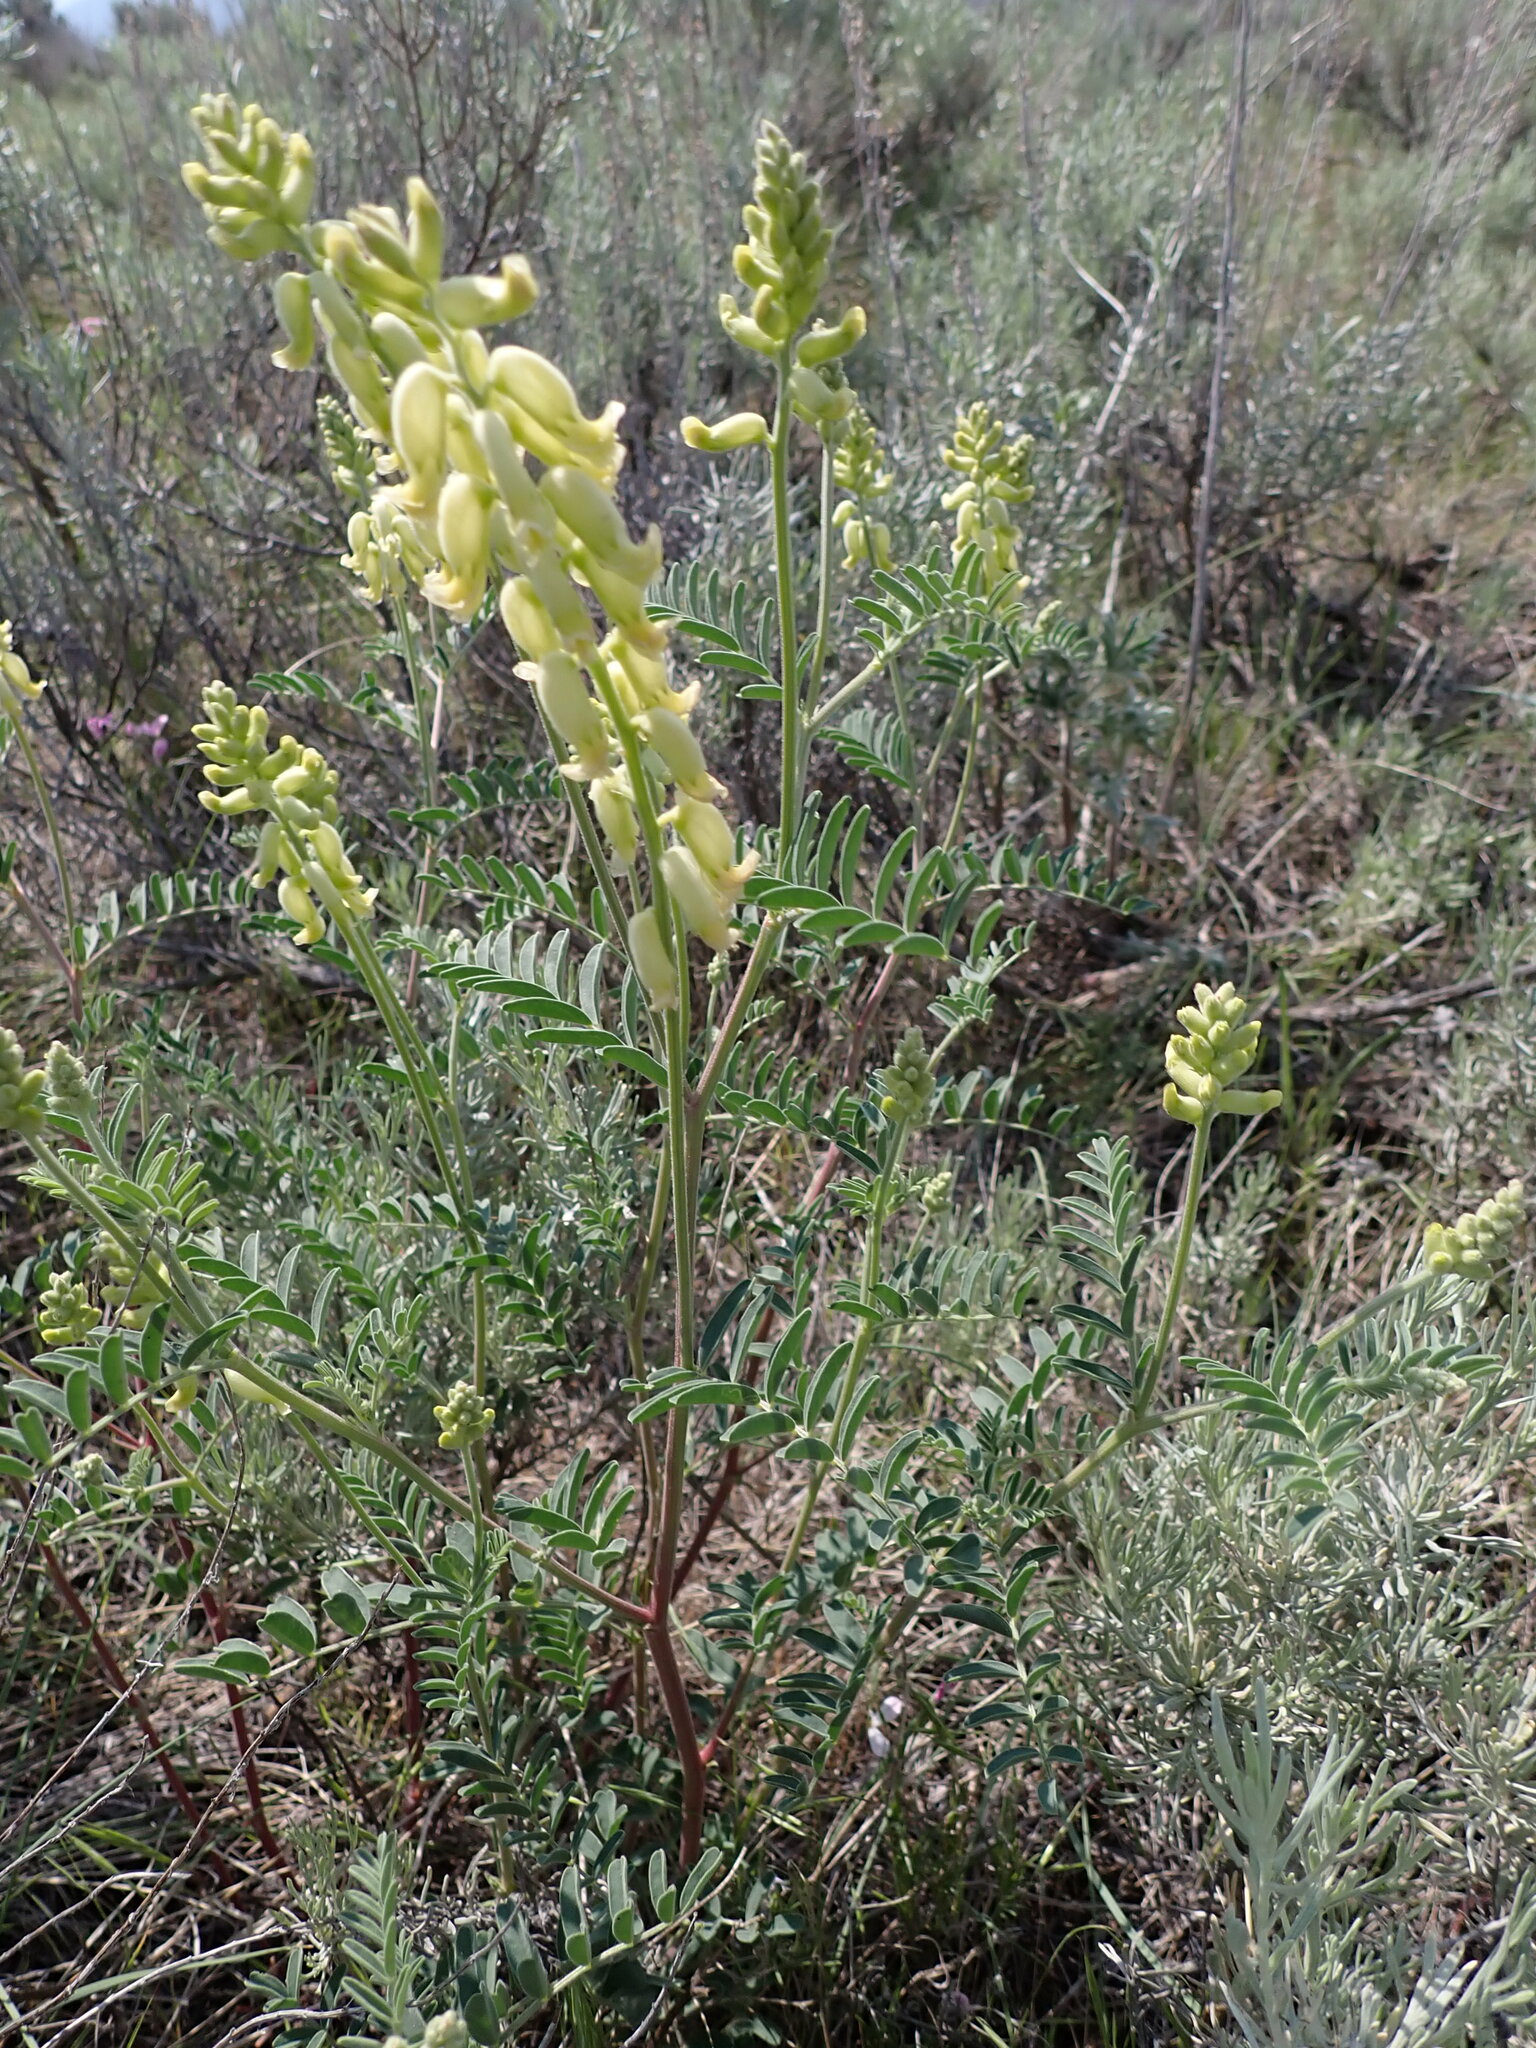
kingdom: Plantae
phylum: Tracheophyta
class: Magnoliopsida
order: Fabales
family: Fabaceae
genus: Astragalus
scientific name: Astragalus collinus
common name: Hill milk-vetch
